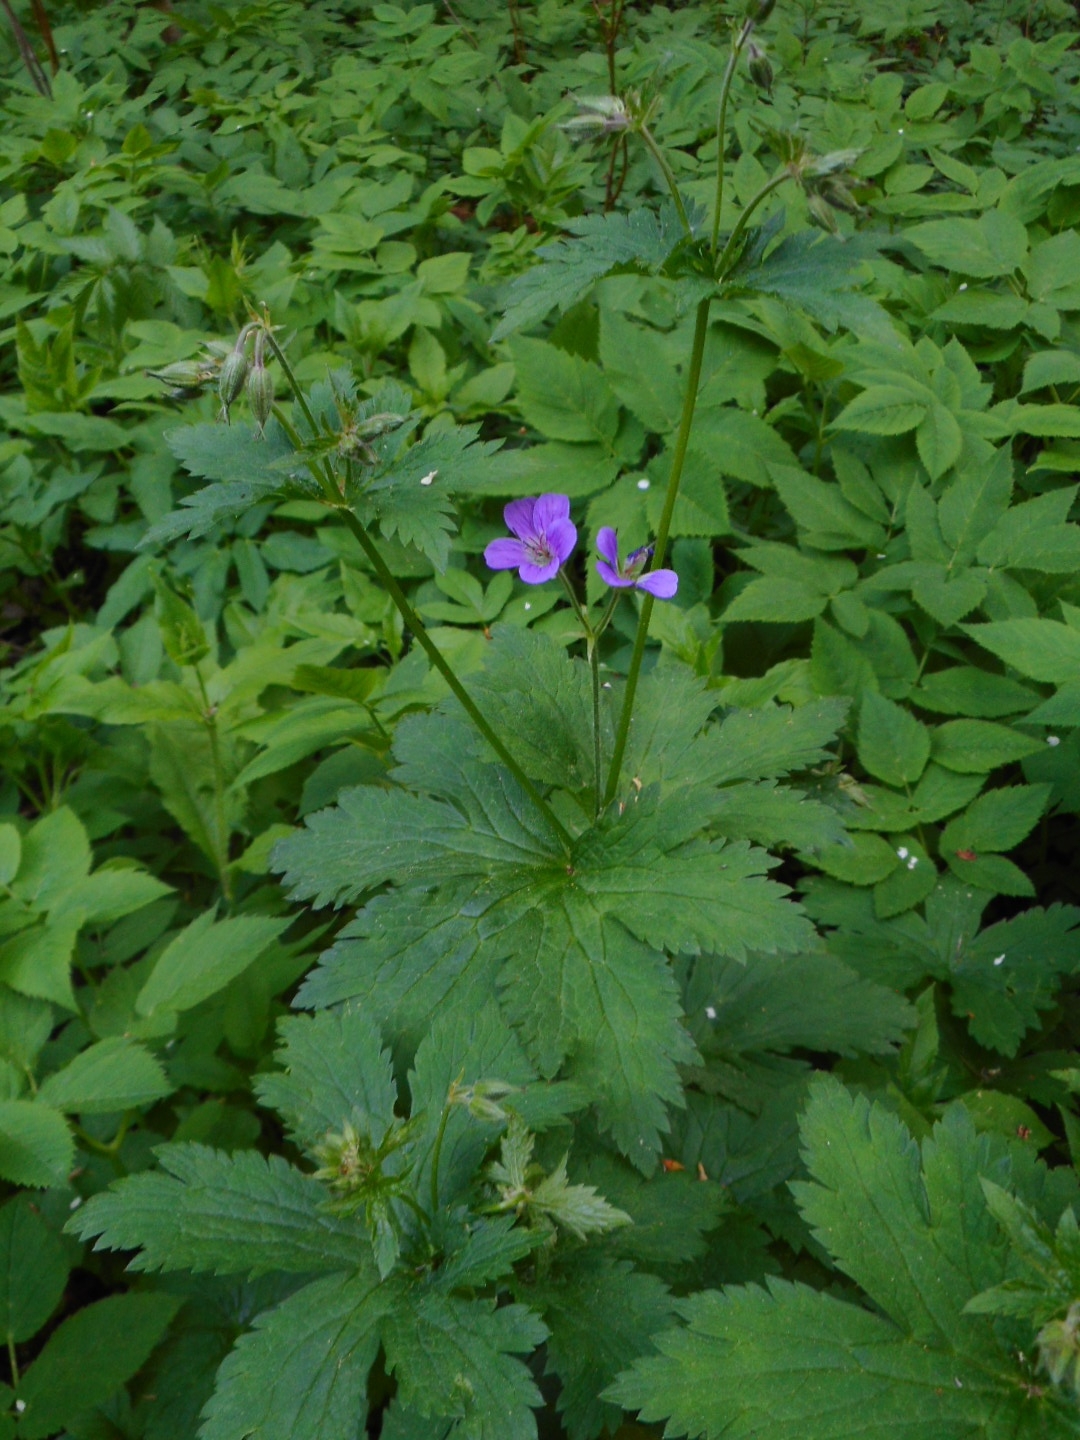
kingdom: Plantae
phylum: Tracheophyta
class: Magnoliopsida
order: Geraniales
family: Geraniaceae
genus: Geranium
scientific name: Geranium sylvaticum
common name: Wood crane's-bill
